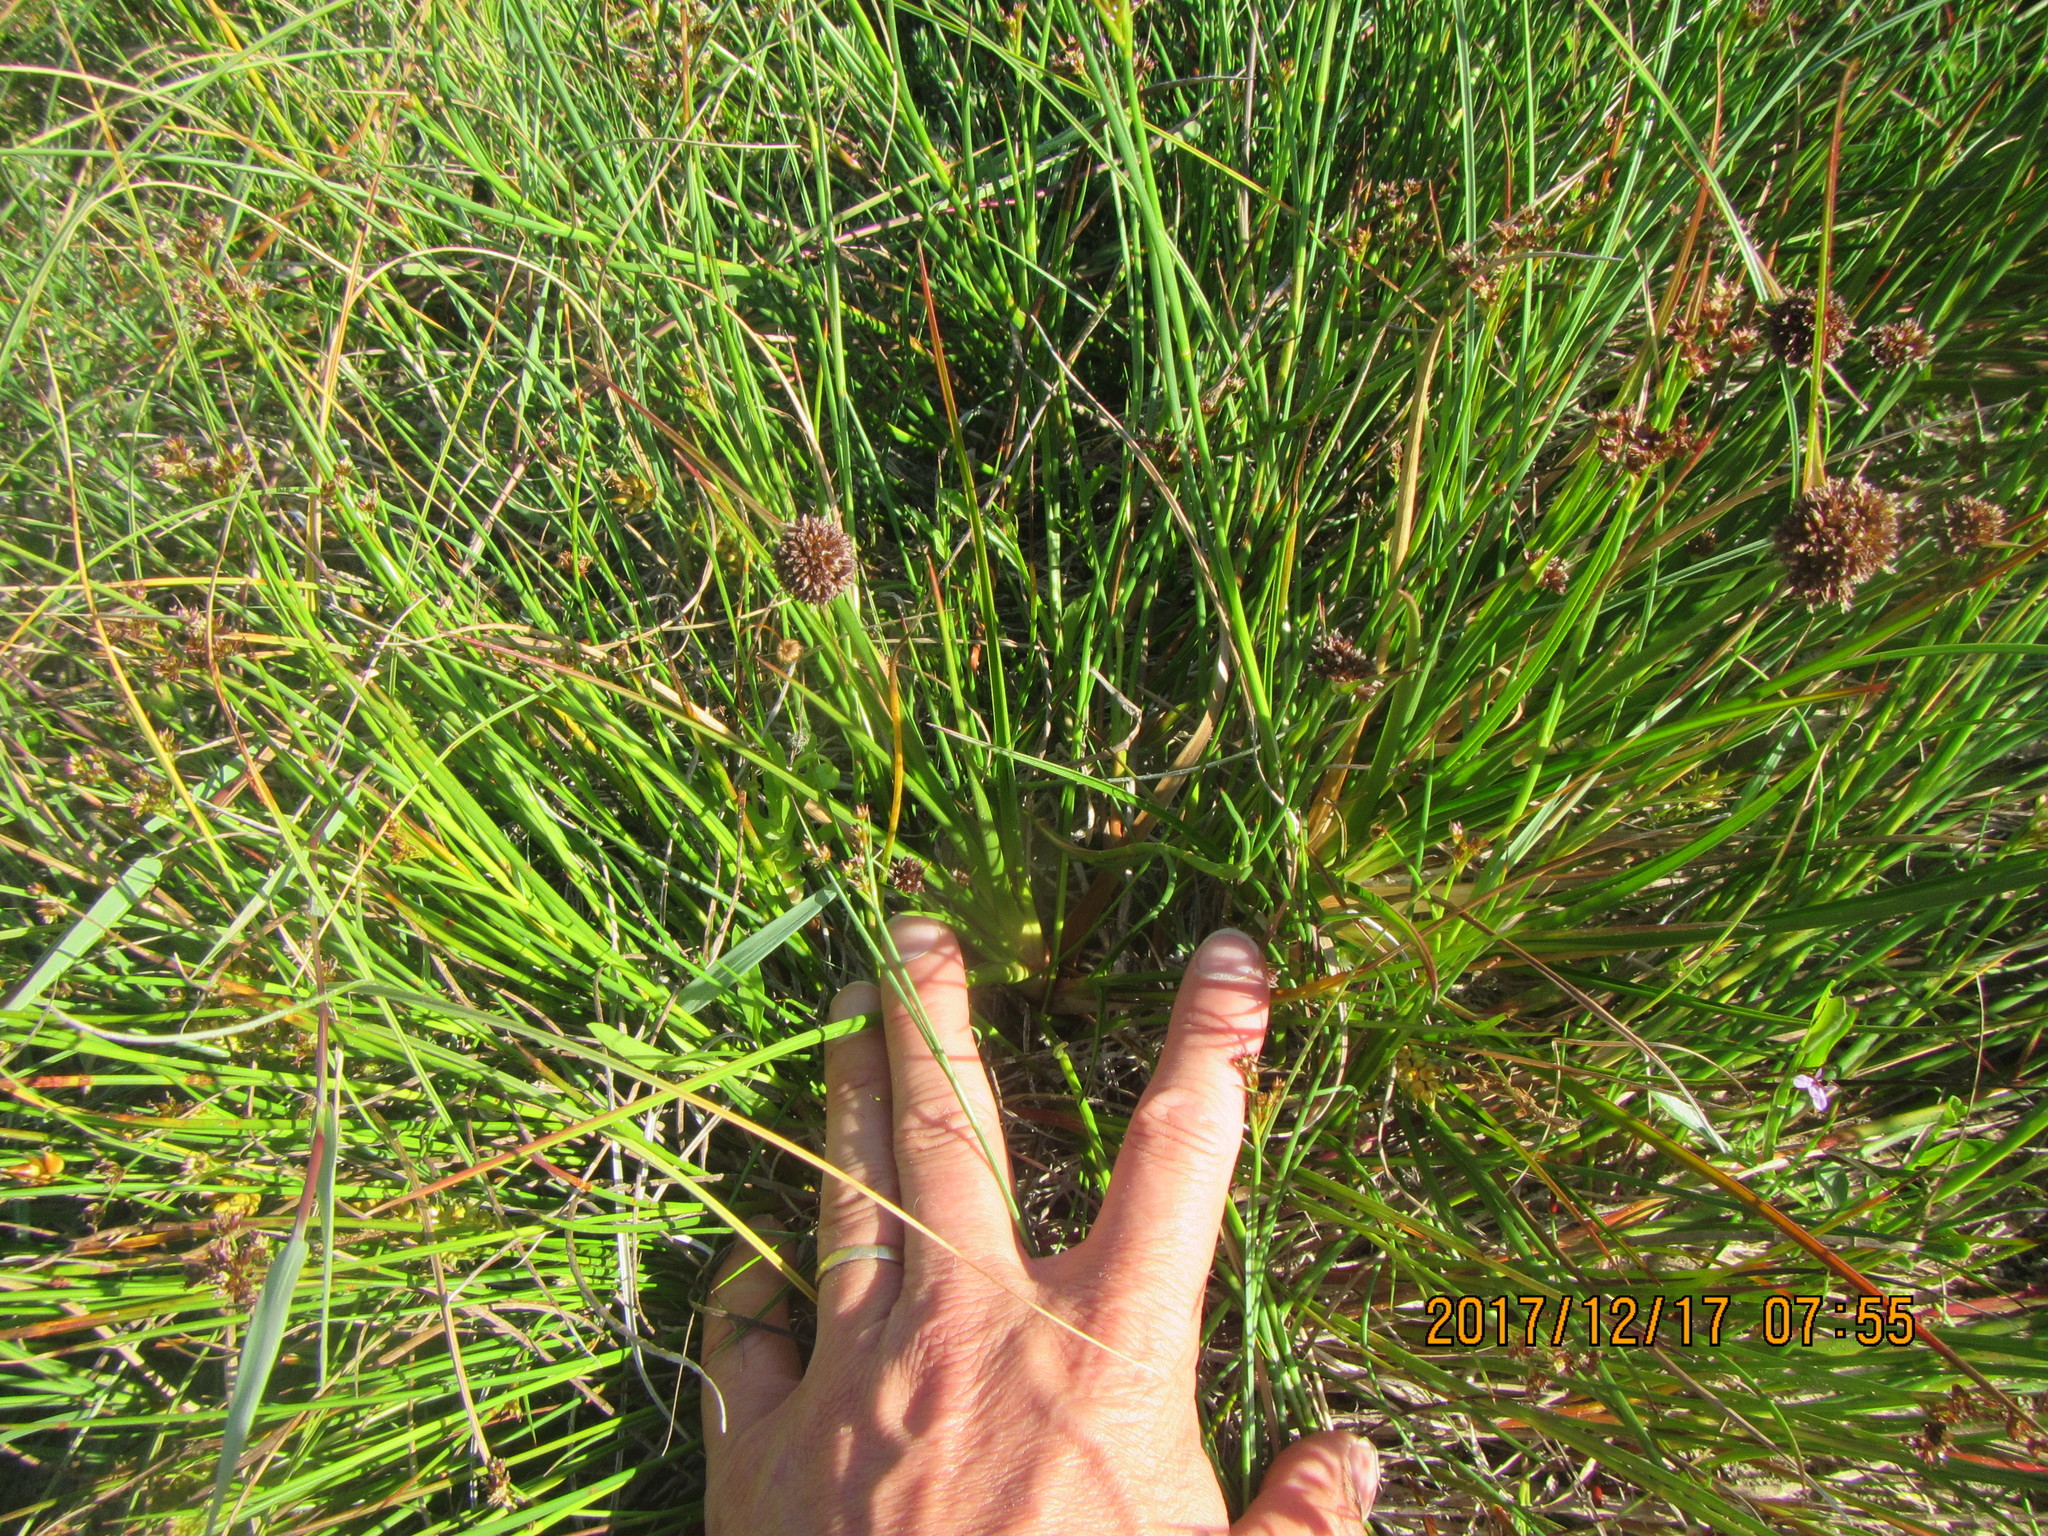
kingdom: Plantae
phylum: Tracheophyta
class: Liliopsida
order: Poales
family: Juncaceae
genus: Juncus
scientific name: Juncus caespiticius
